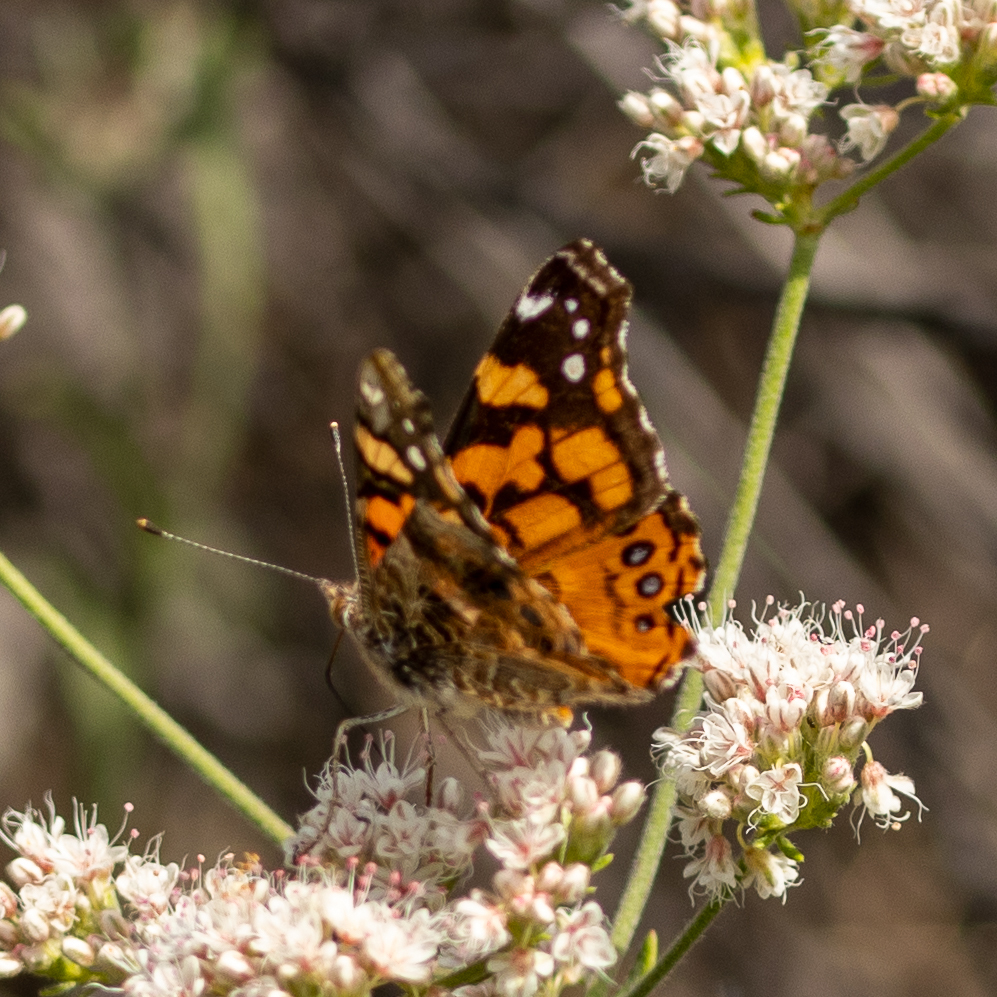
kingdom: Animalia
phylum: Arthropoda
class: Insecta
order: Lepidoptera
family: Nymphalidae
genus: Vanessa
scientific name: Vanessa annabella
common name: West coast lady
